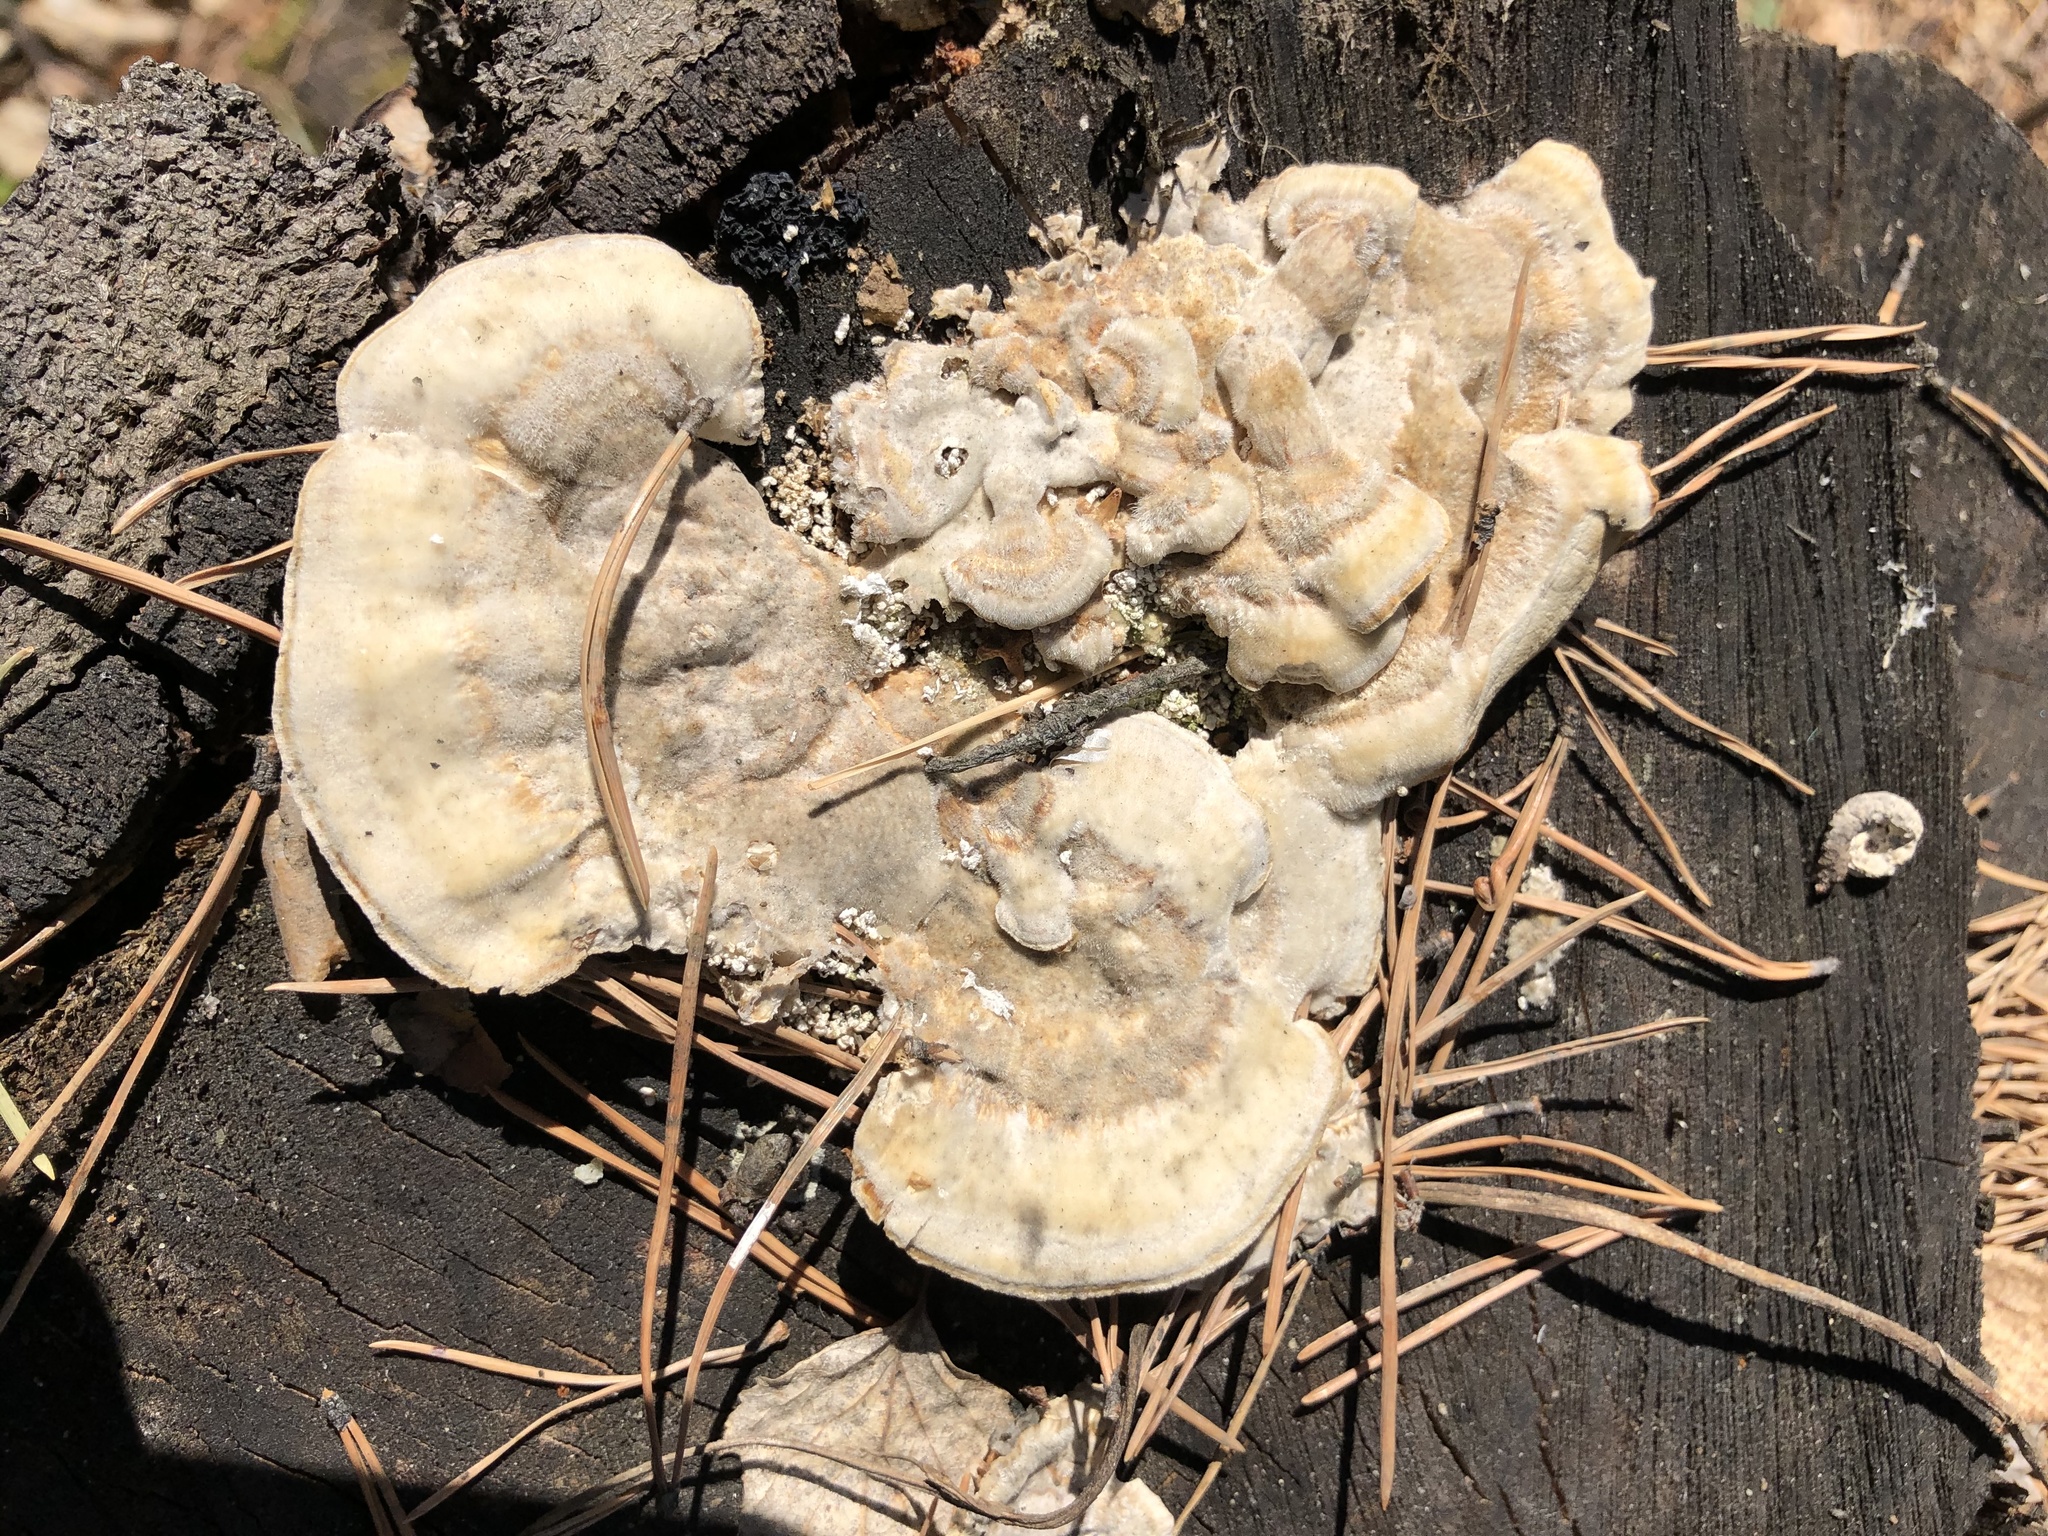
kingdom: Fungi
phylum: Basidiomycota
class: Agaricomycetes
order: Polyporales
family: Polyporaceae
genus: Trametes
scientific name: Trametes ochracea
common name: Ochre bracket
